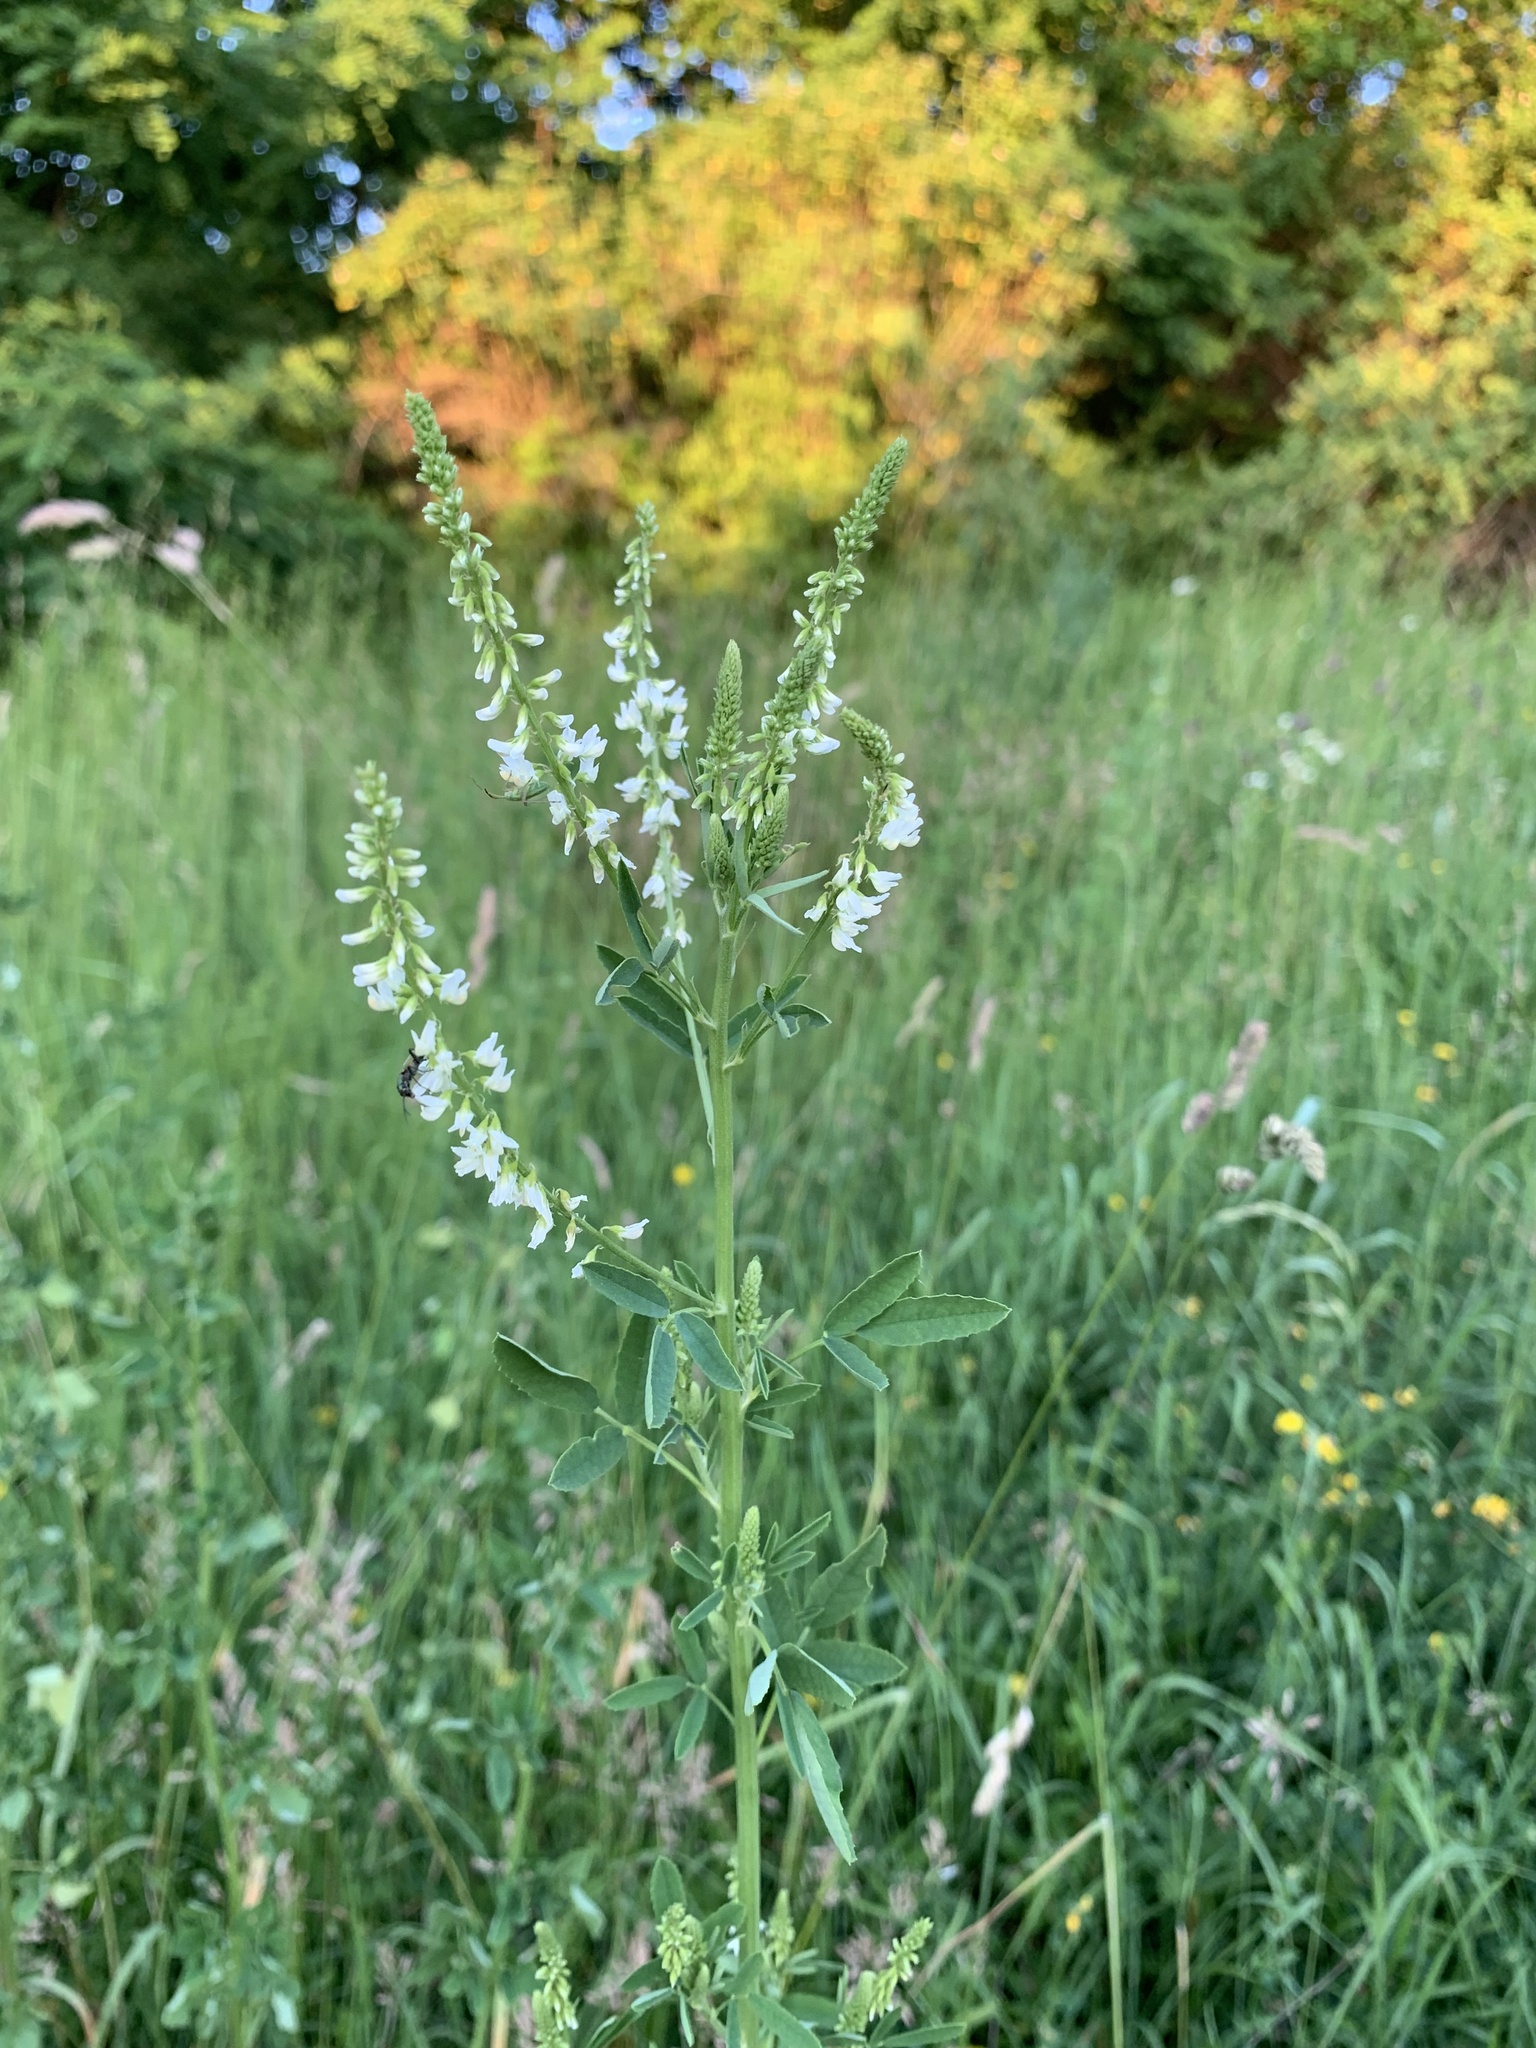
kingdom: Plantae
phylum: Tracheophyta
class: Magnoliopsida
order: Fabales
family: Fabaceae
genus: Melilotus
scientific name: Melilotus albus
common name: White melilot
